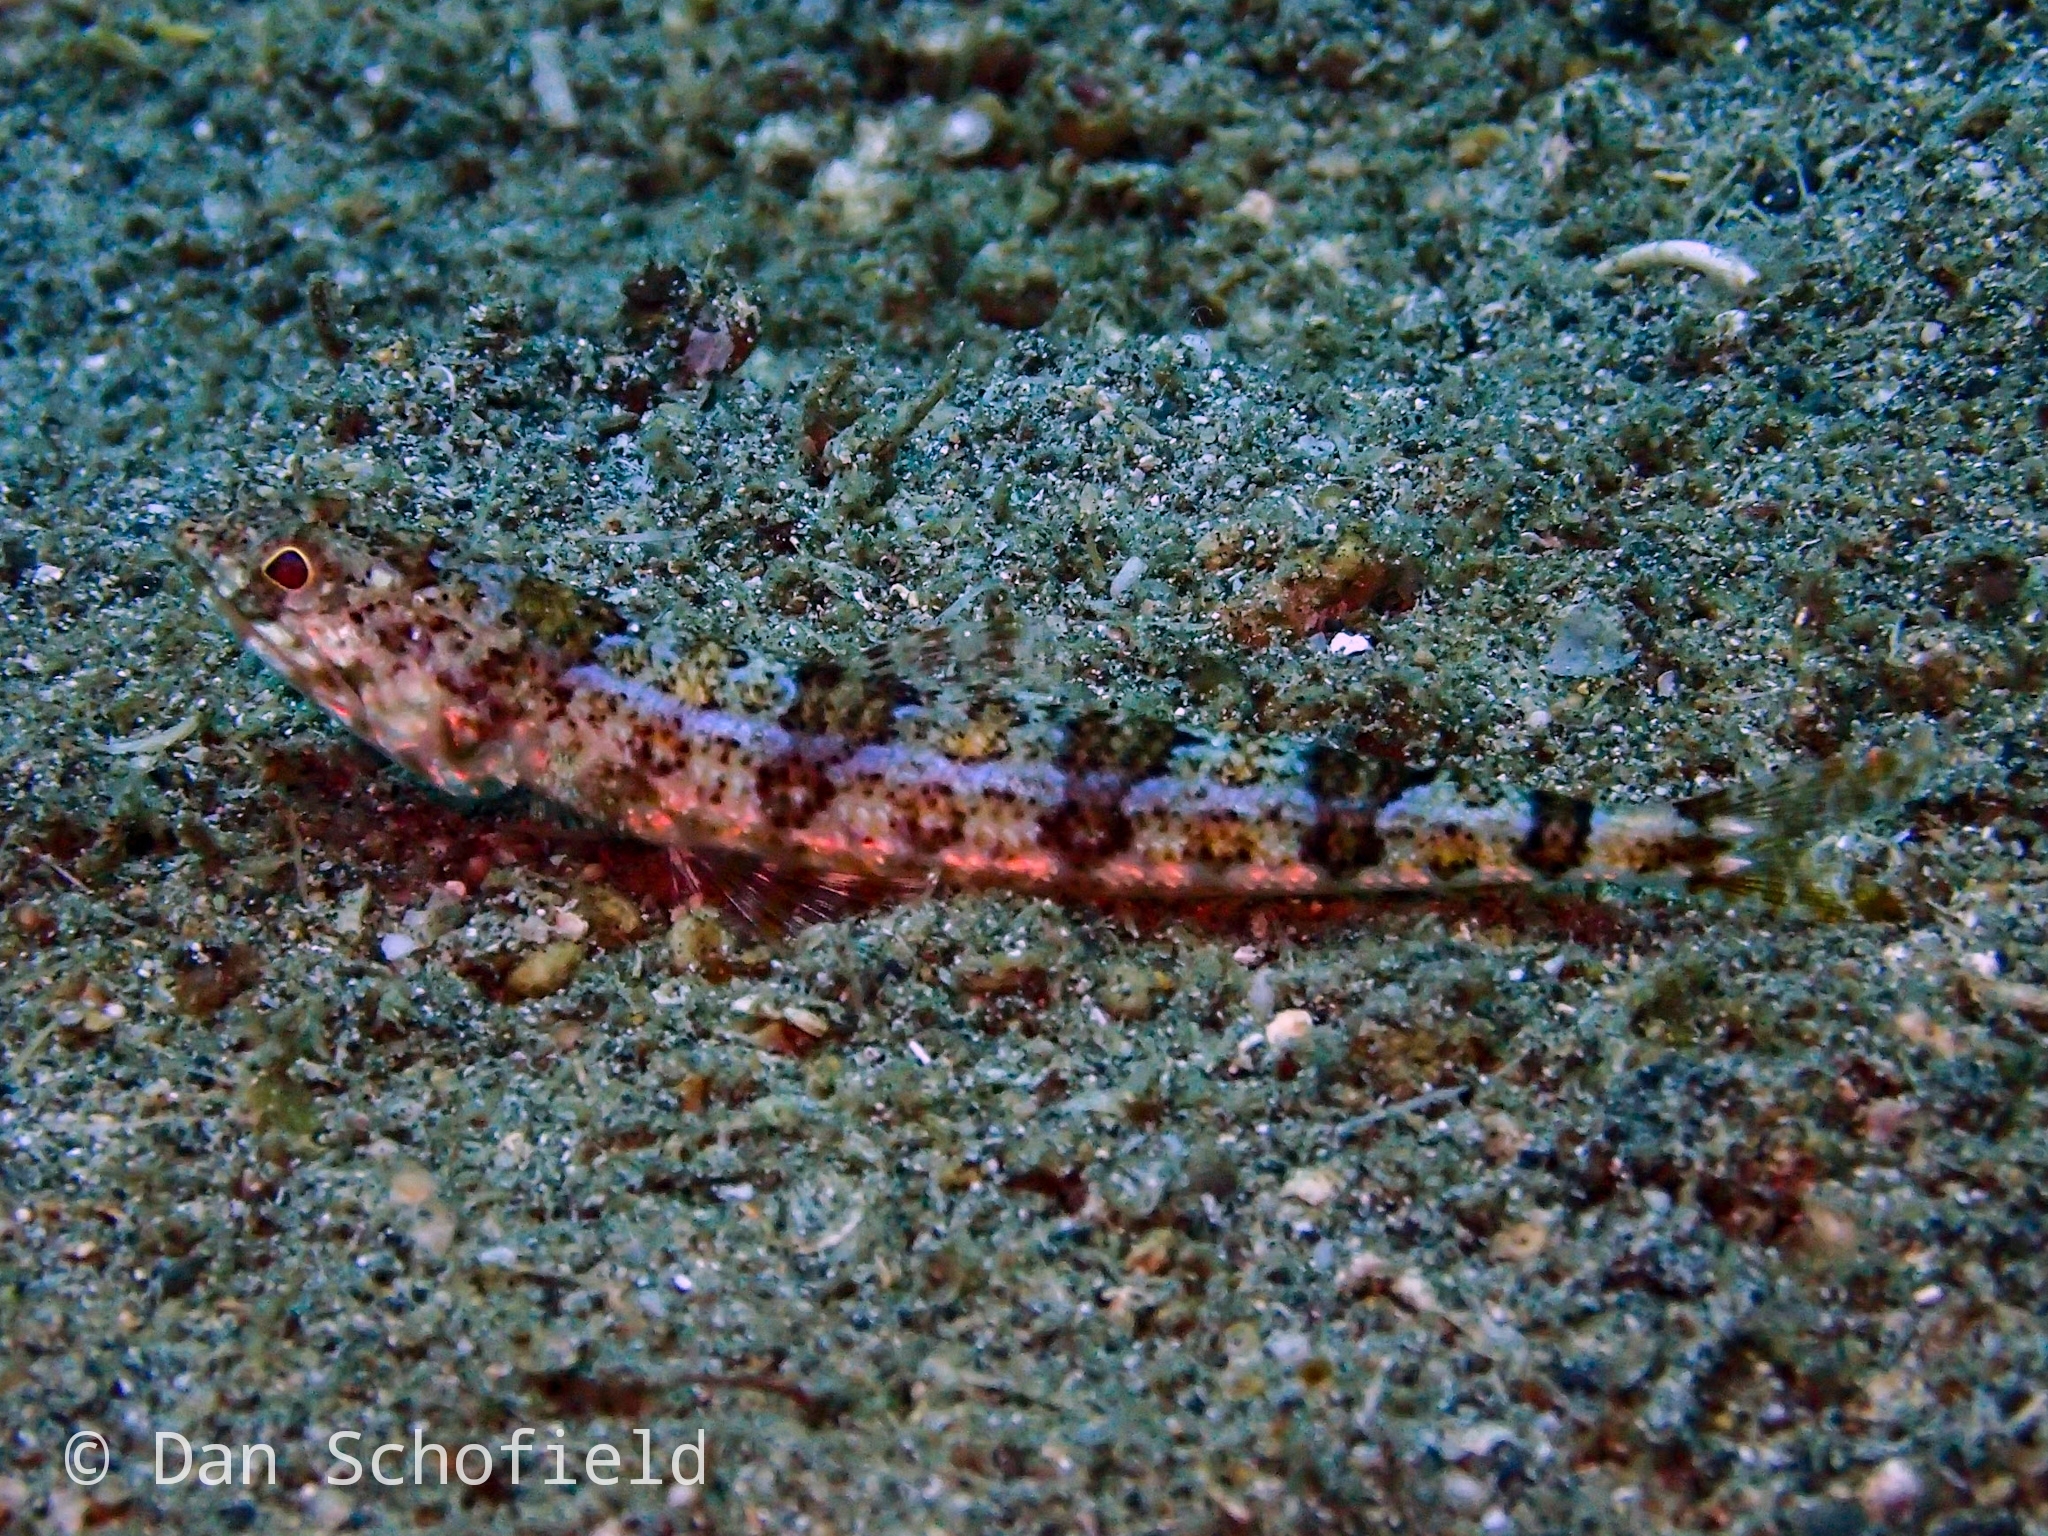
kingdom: Animalia
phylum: Chordata
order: Aulopiformes
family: Synodontidae
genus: Synodus
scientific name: Synodus dermatogenys
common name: Banded lizardfish
